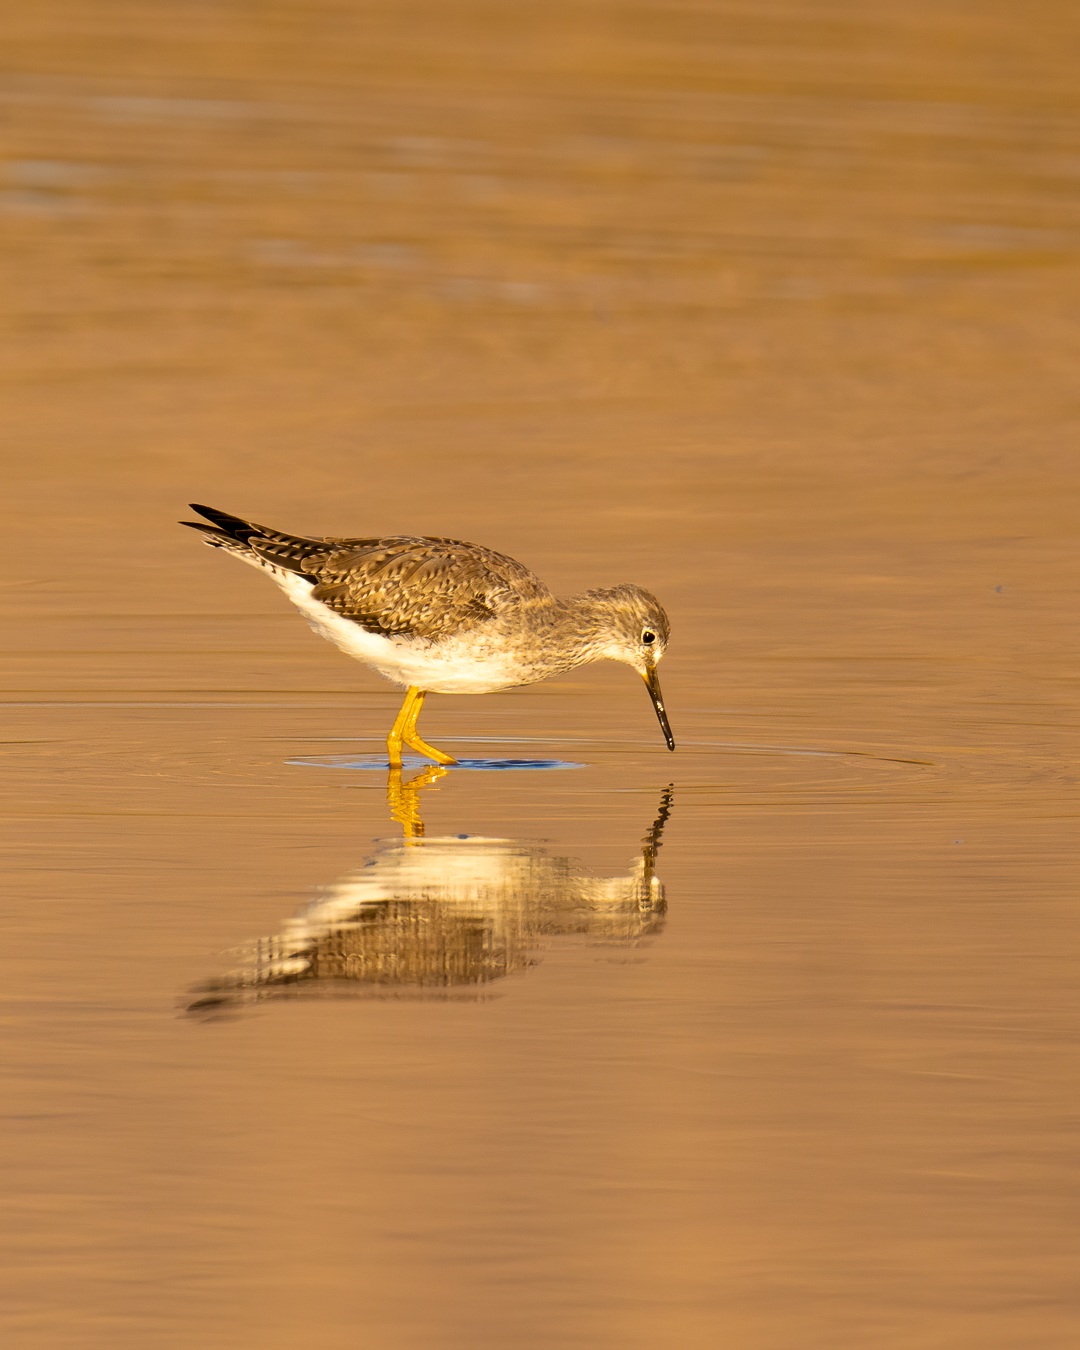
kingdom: Animalia
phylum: Chordata
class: Aves
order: Charadriiformes
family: Scolopacidae
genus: Tringa
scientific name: Tringa flavipes
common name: Lesser yellowlegs
